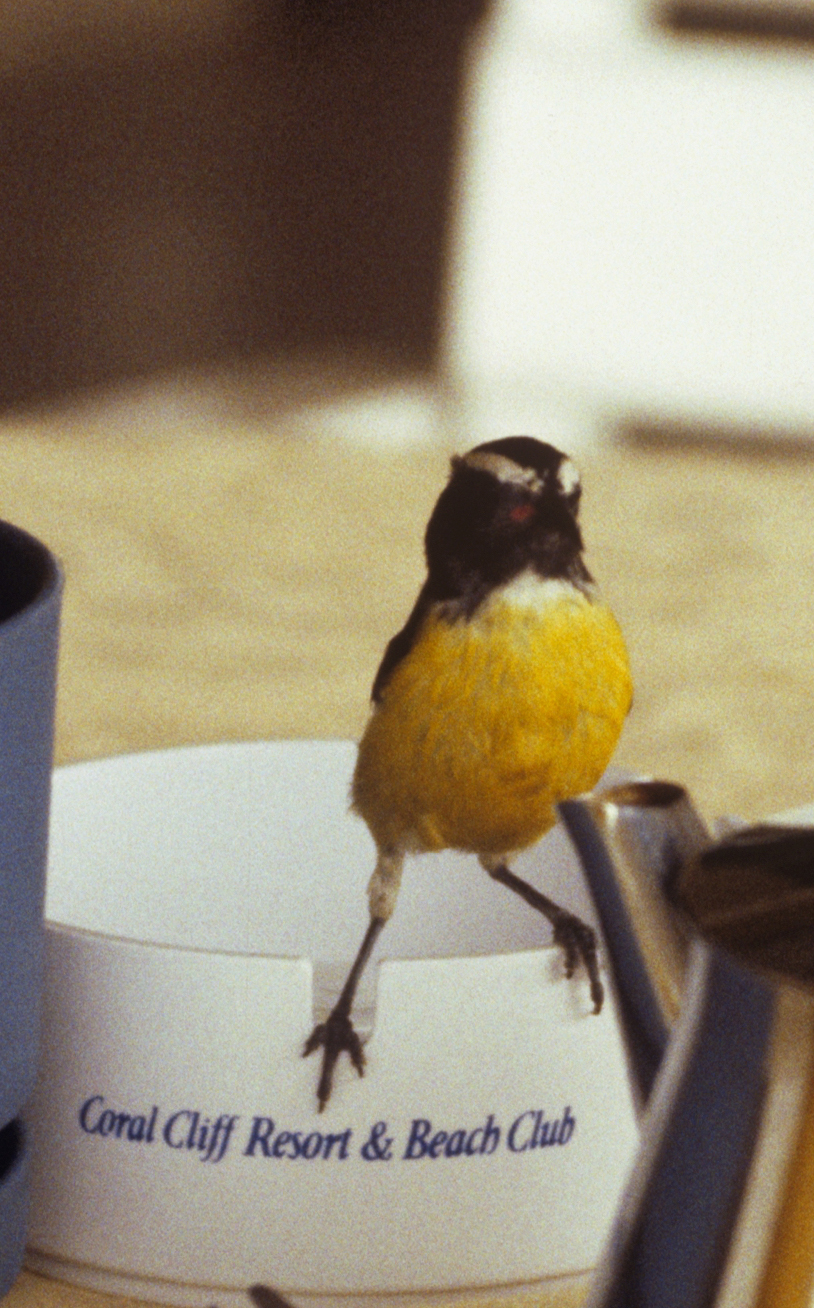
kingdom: Animalia
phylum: Chordata
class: Aves
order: Passeriformes
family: Thraupidae
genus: Coereba
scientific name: Coereba flaveola
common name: Bananaquit
